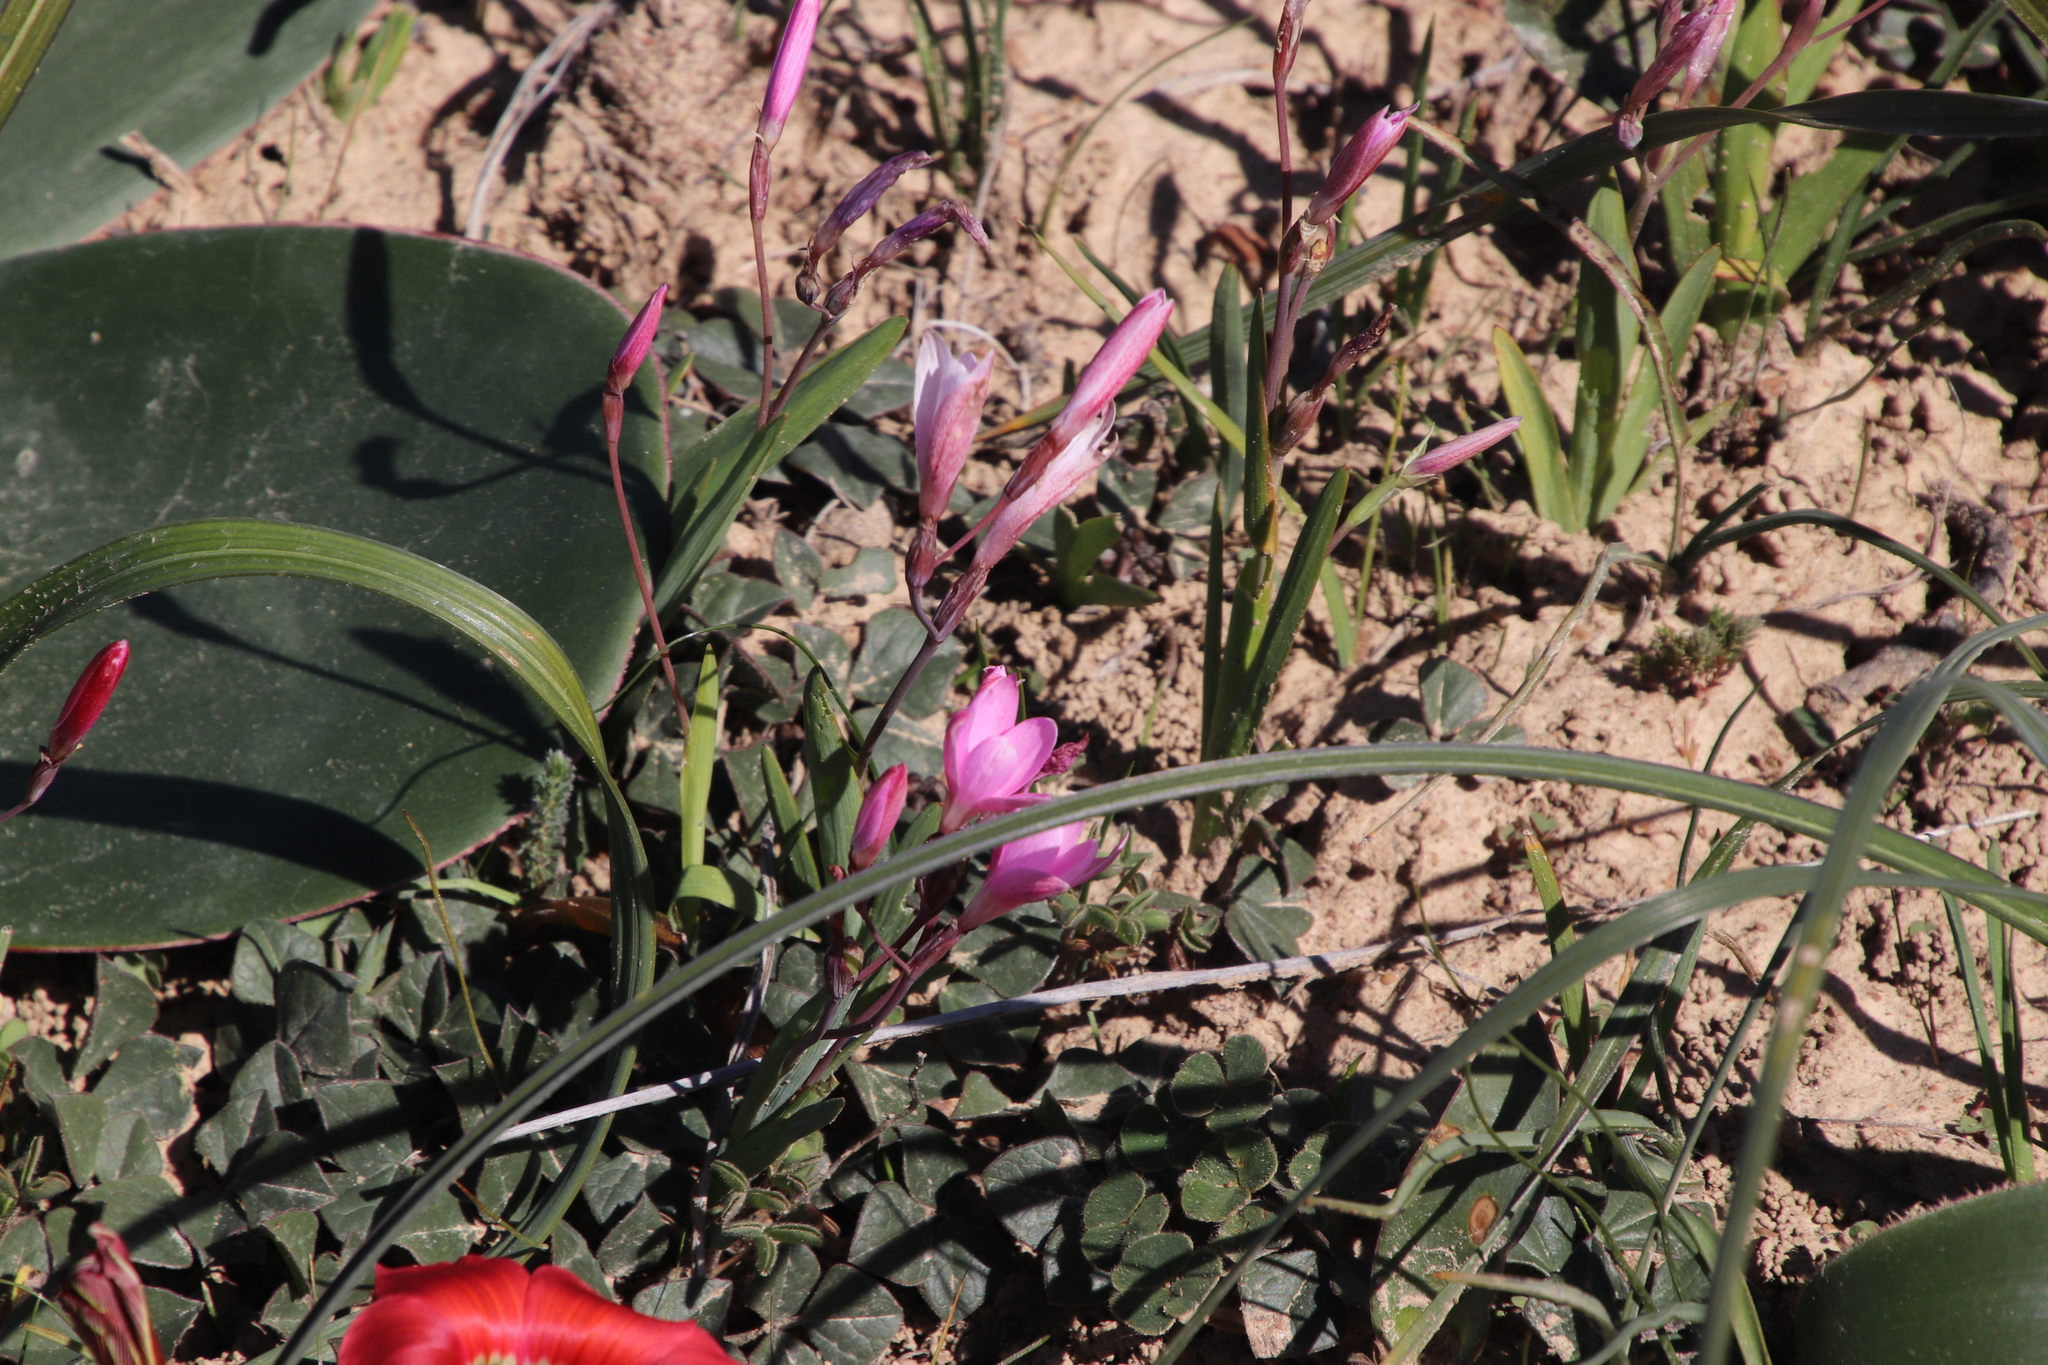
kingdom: Plantae
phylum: Tracheophyta
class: Liliopsida
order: Asparagales
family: Iridaceae
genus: Hesperantha
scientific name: Hesperantha pauciflora
